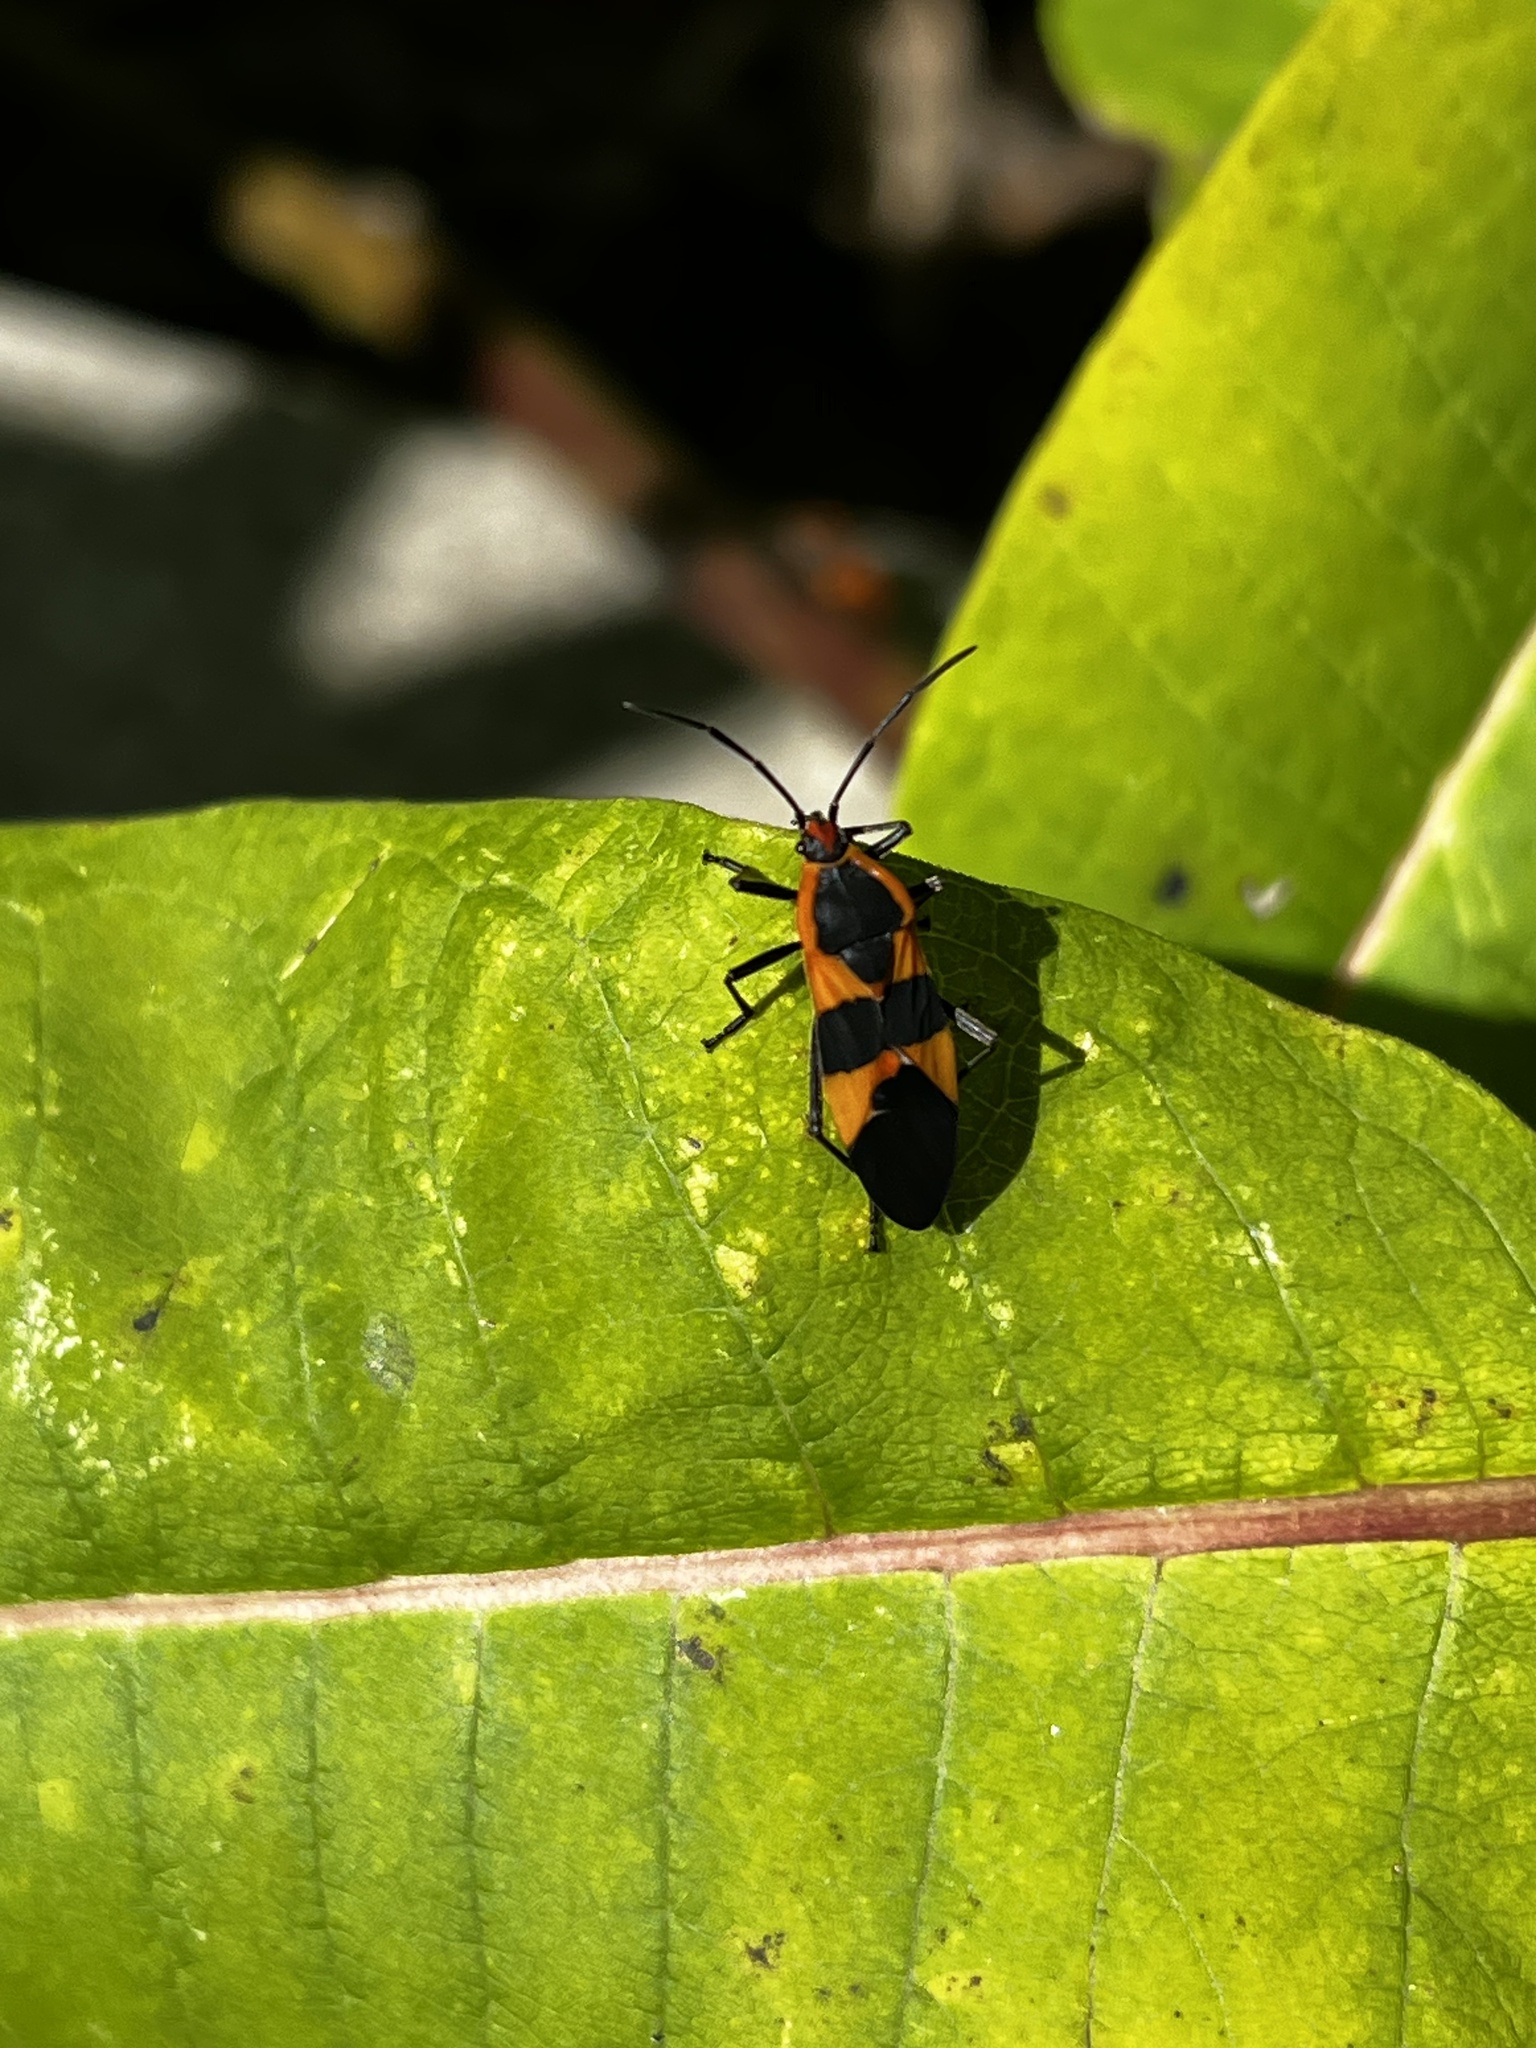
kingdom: Animalia
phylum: Arthropoda
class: Insecta
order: Hemiptera
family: Lygaeidae
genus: Oncopeltus
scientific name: Oncopeltus fasciatus
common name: Large milkweed bug
